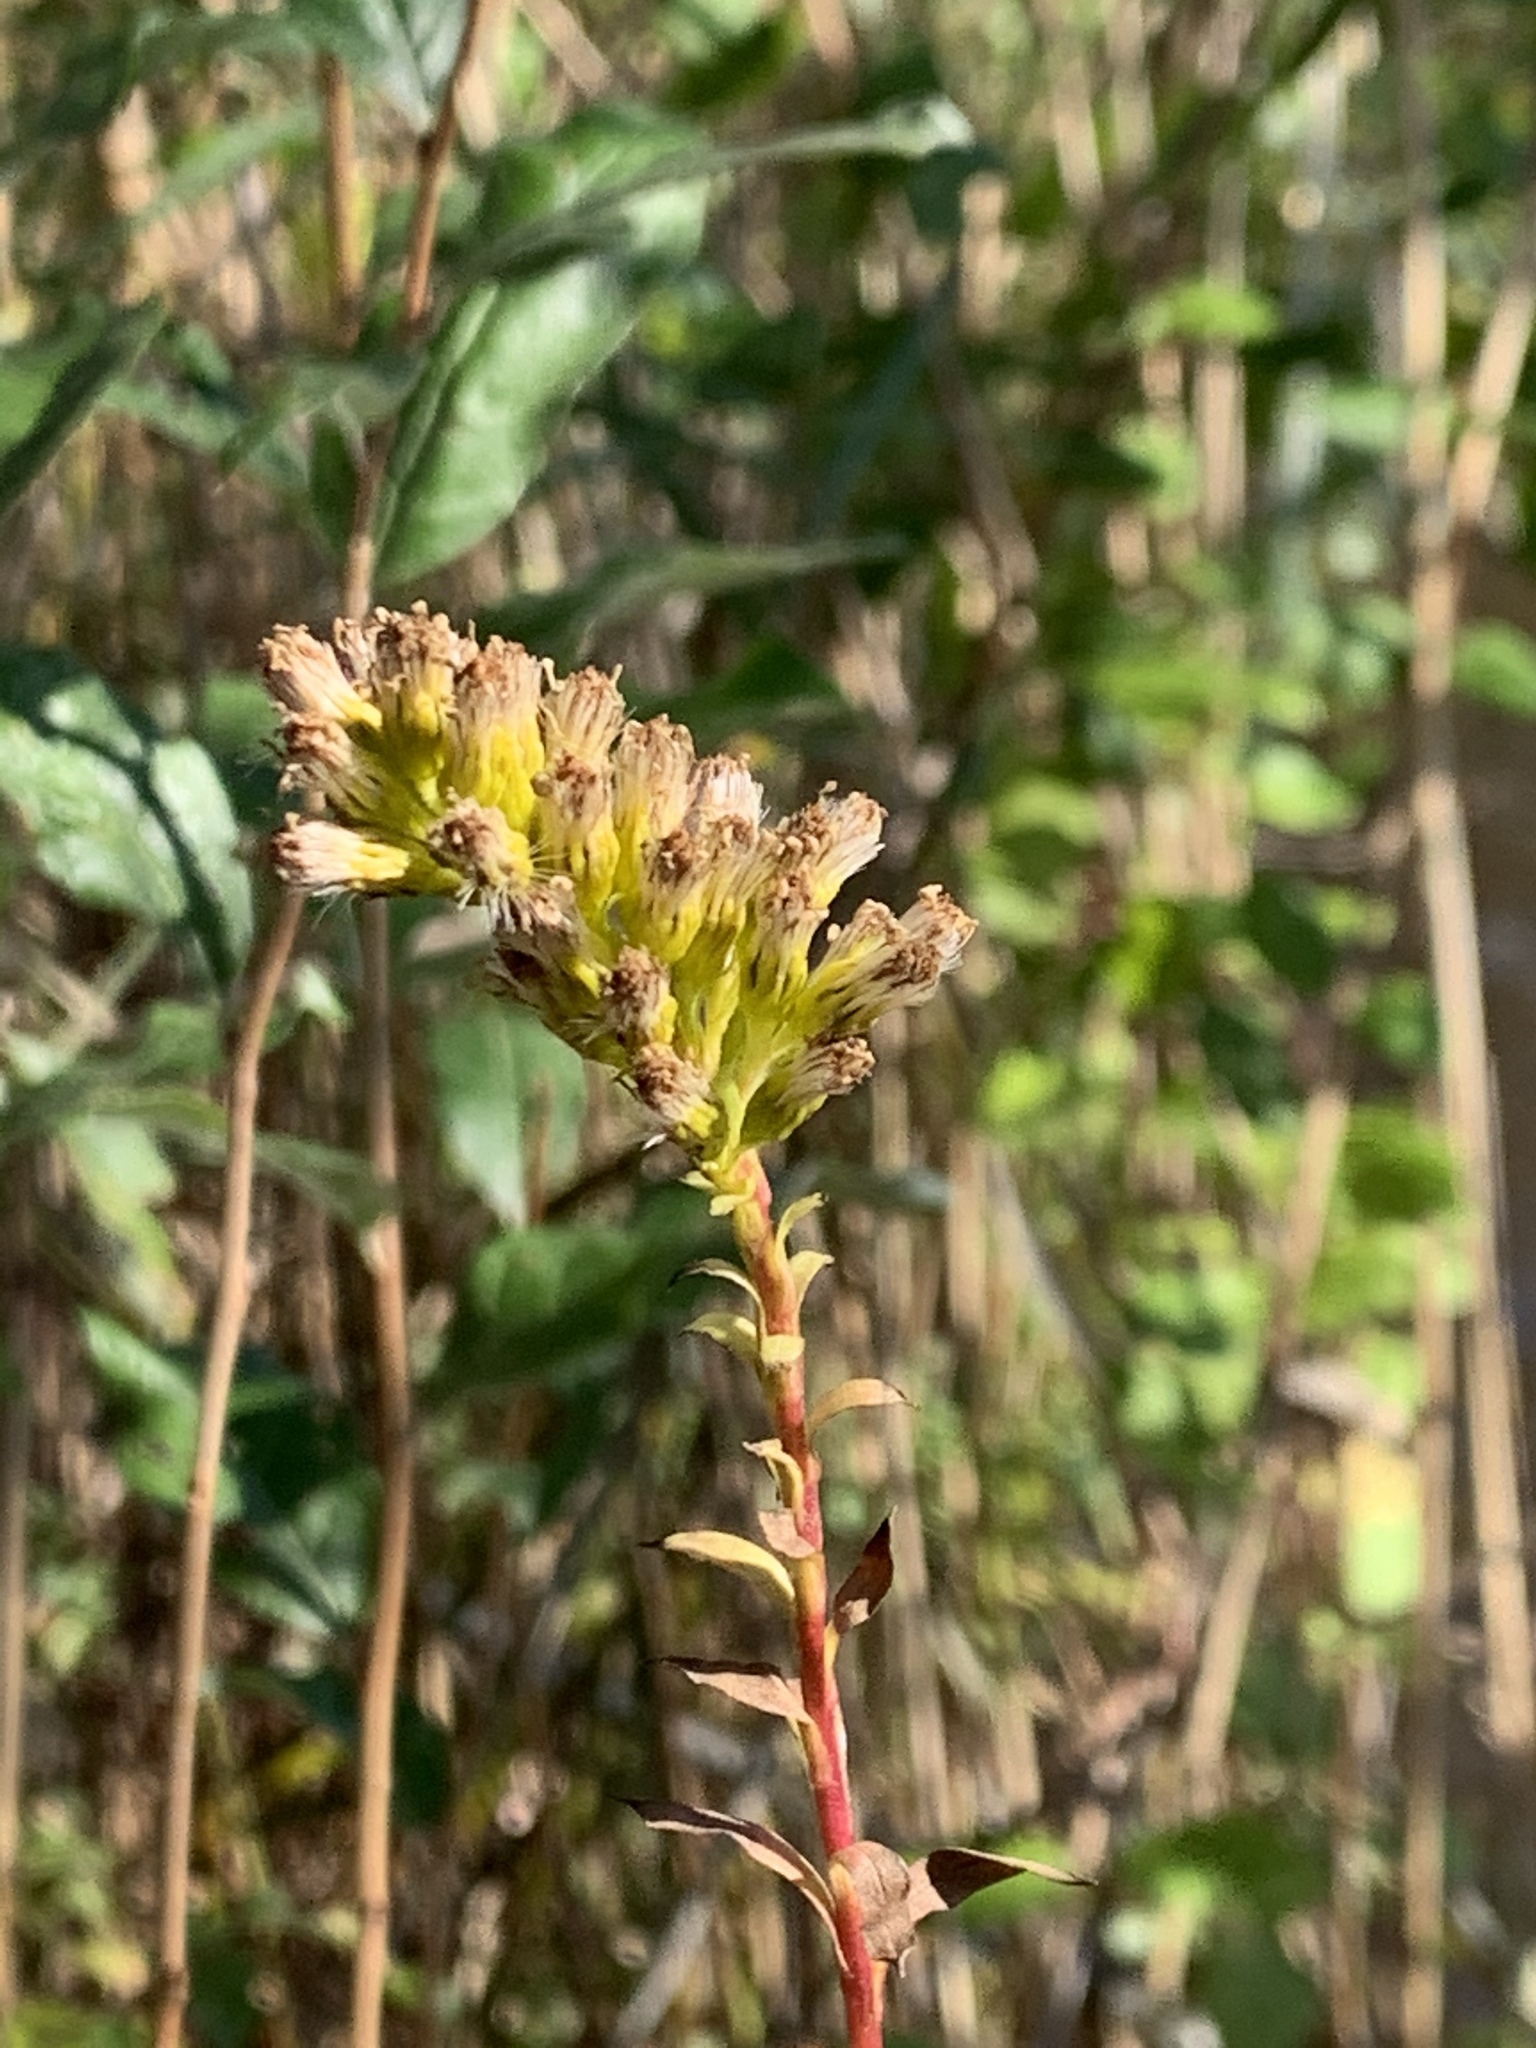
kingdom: Plantae
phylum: Tracheophyta
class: Magnoliopsida
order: Asterales
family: Asteraceae
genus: Solidago
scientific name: Solidago sempervirens
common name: Salt-marsh goldenrod
